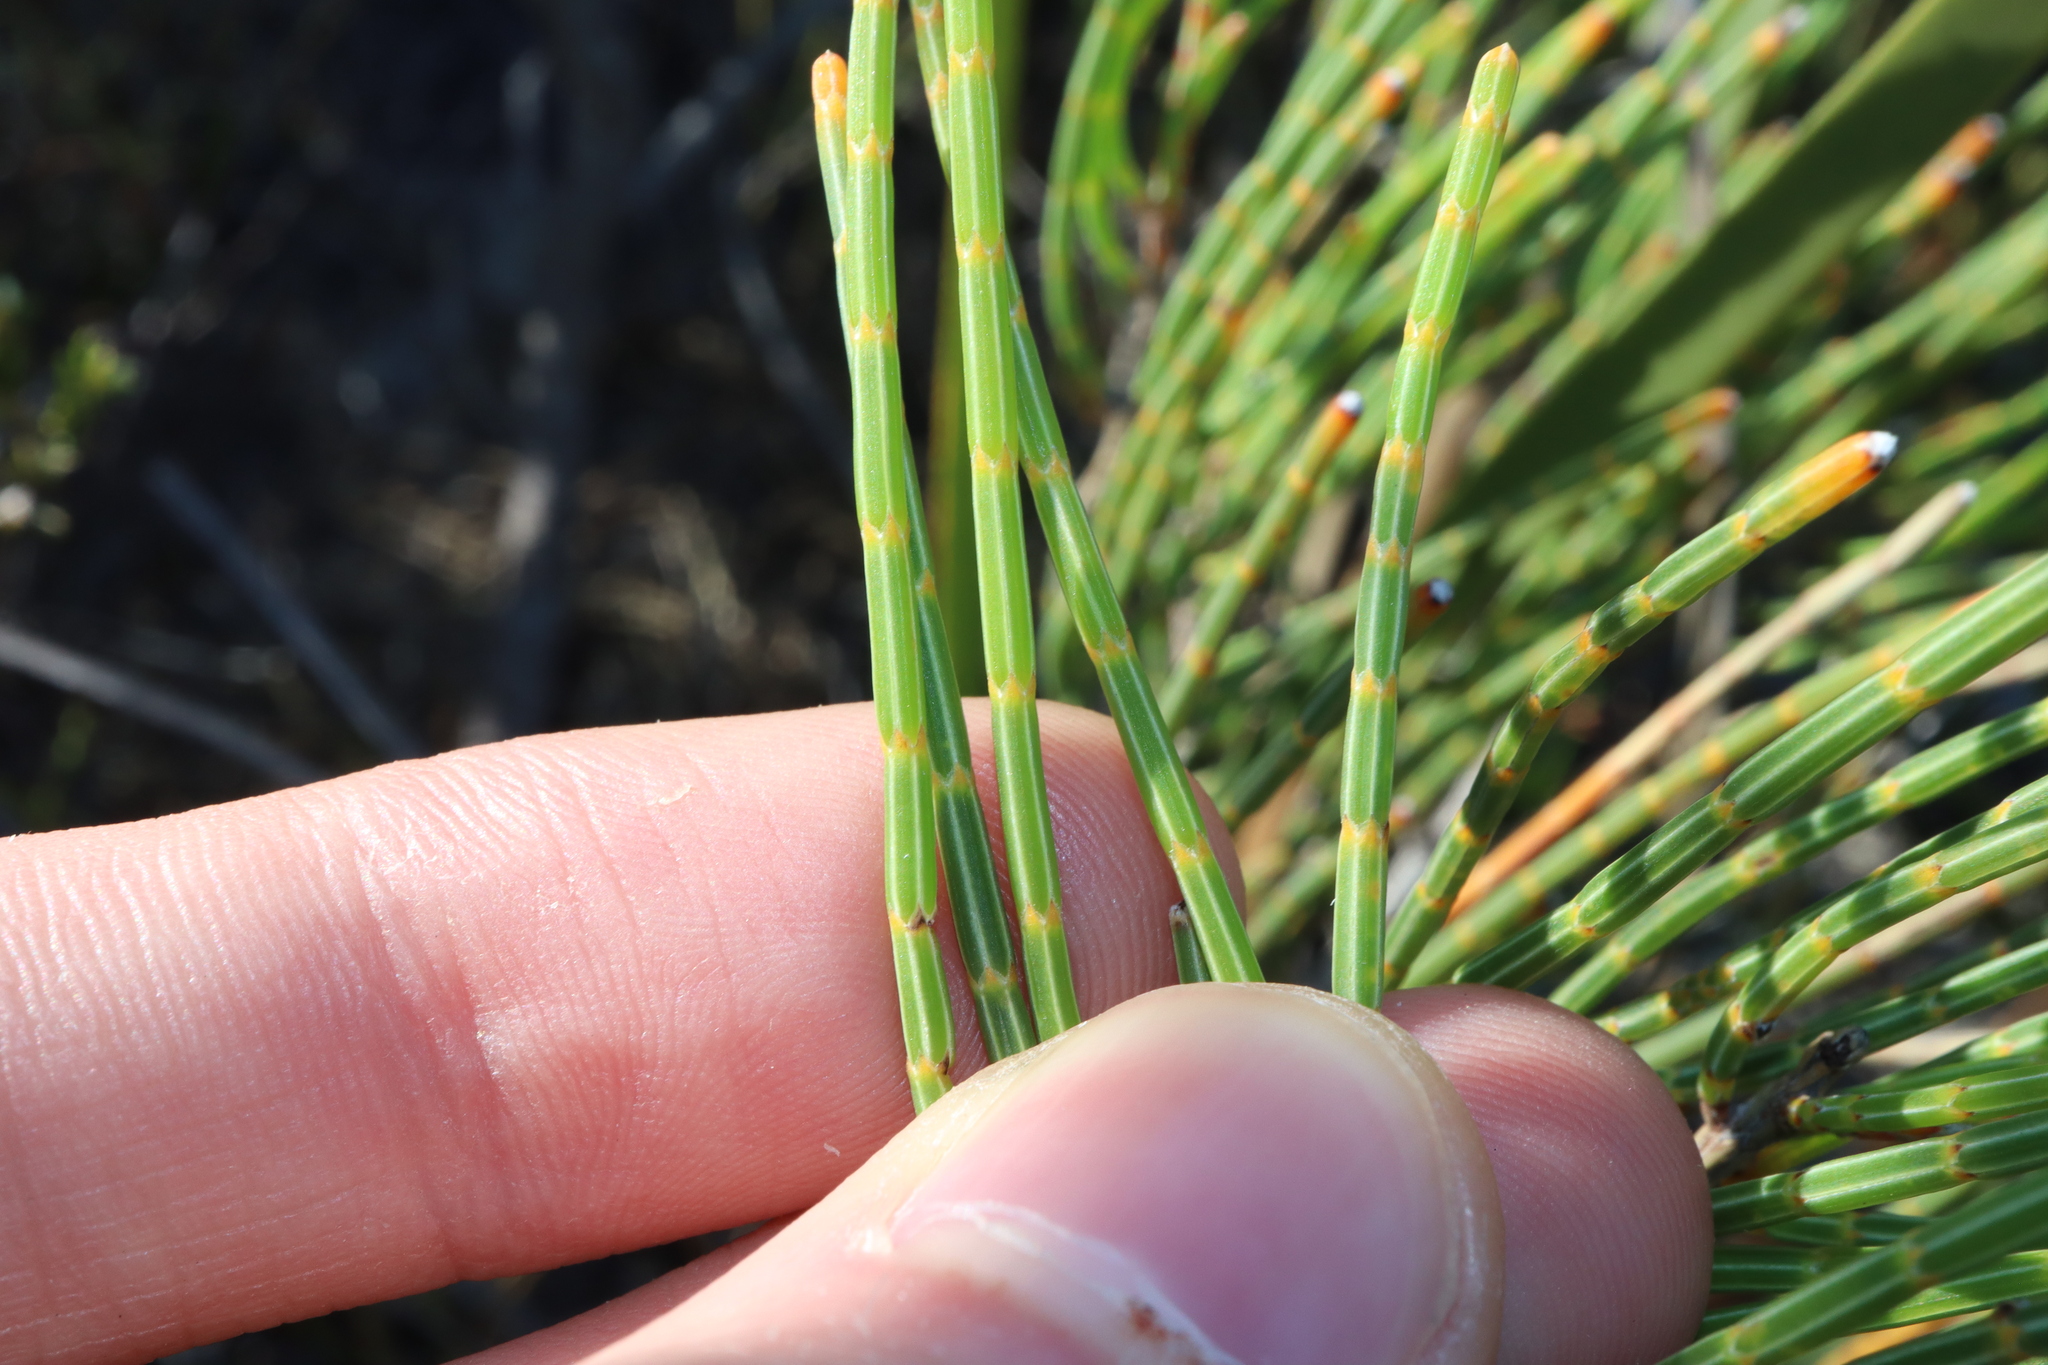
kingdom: Plantae
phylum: Tracheophyta
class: Magnoliopsida
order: Fagales
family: Casuarinaceae
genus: Allocasuarina
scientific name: Allocasuarina humilis
